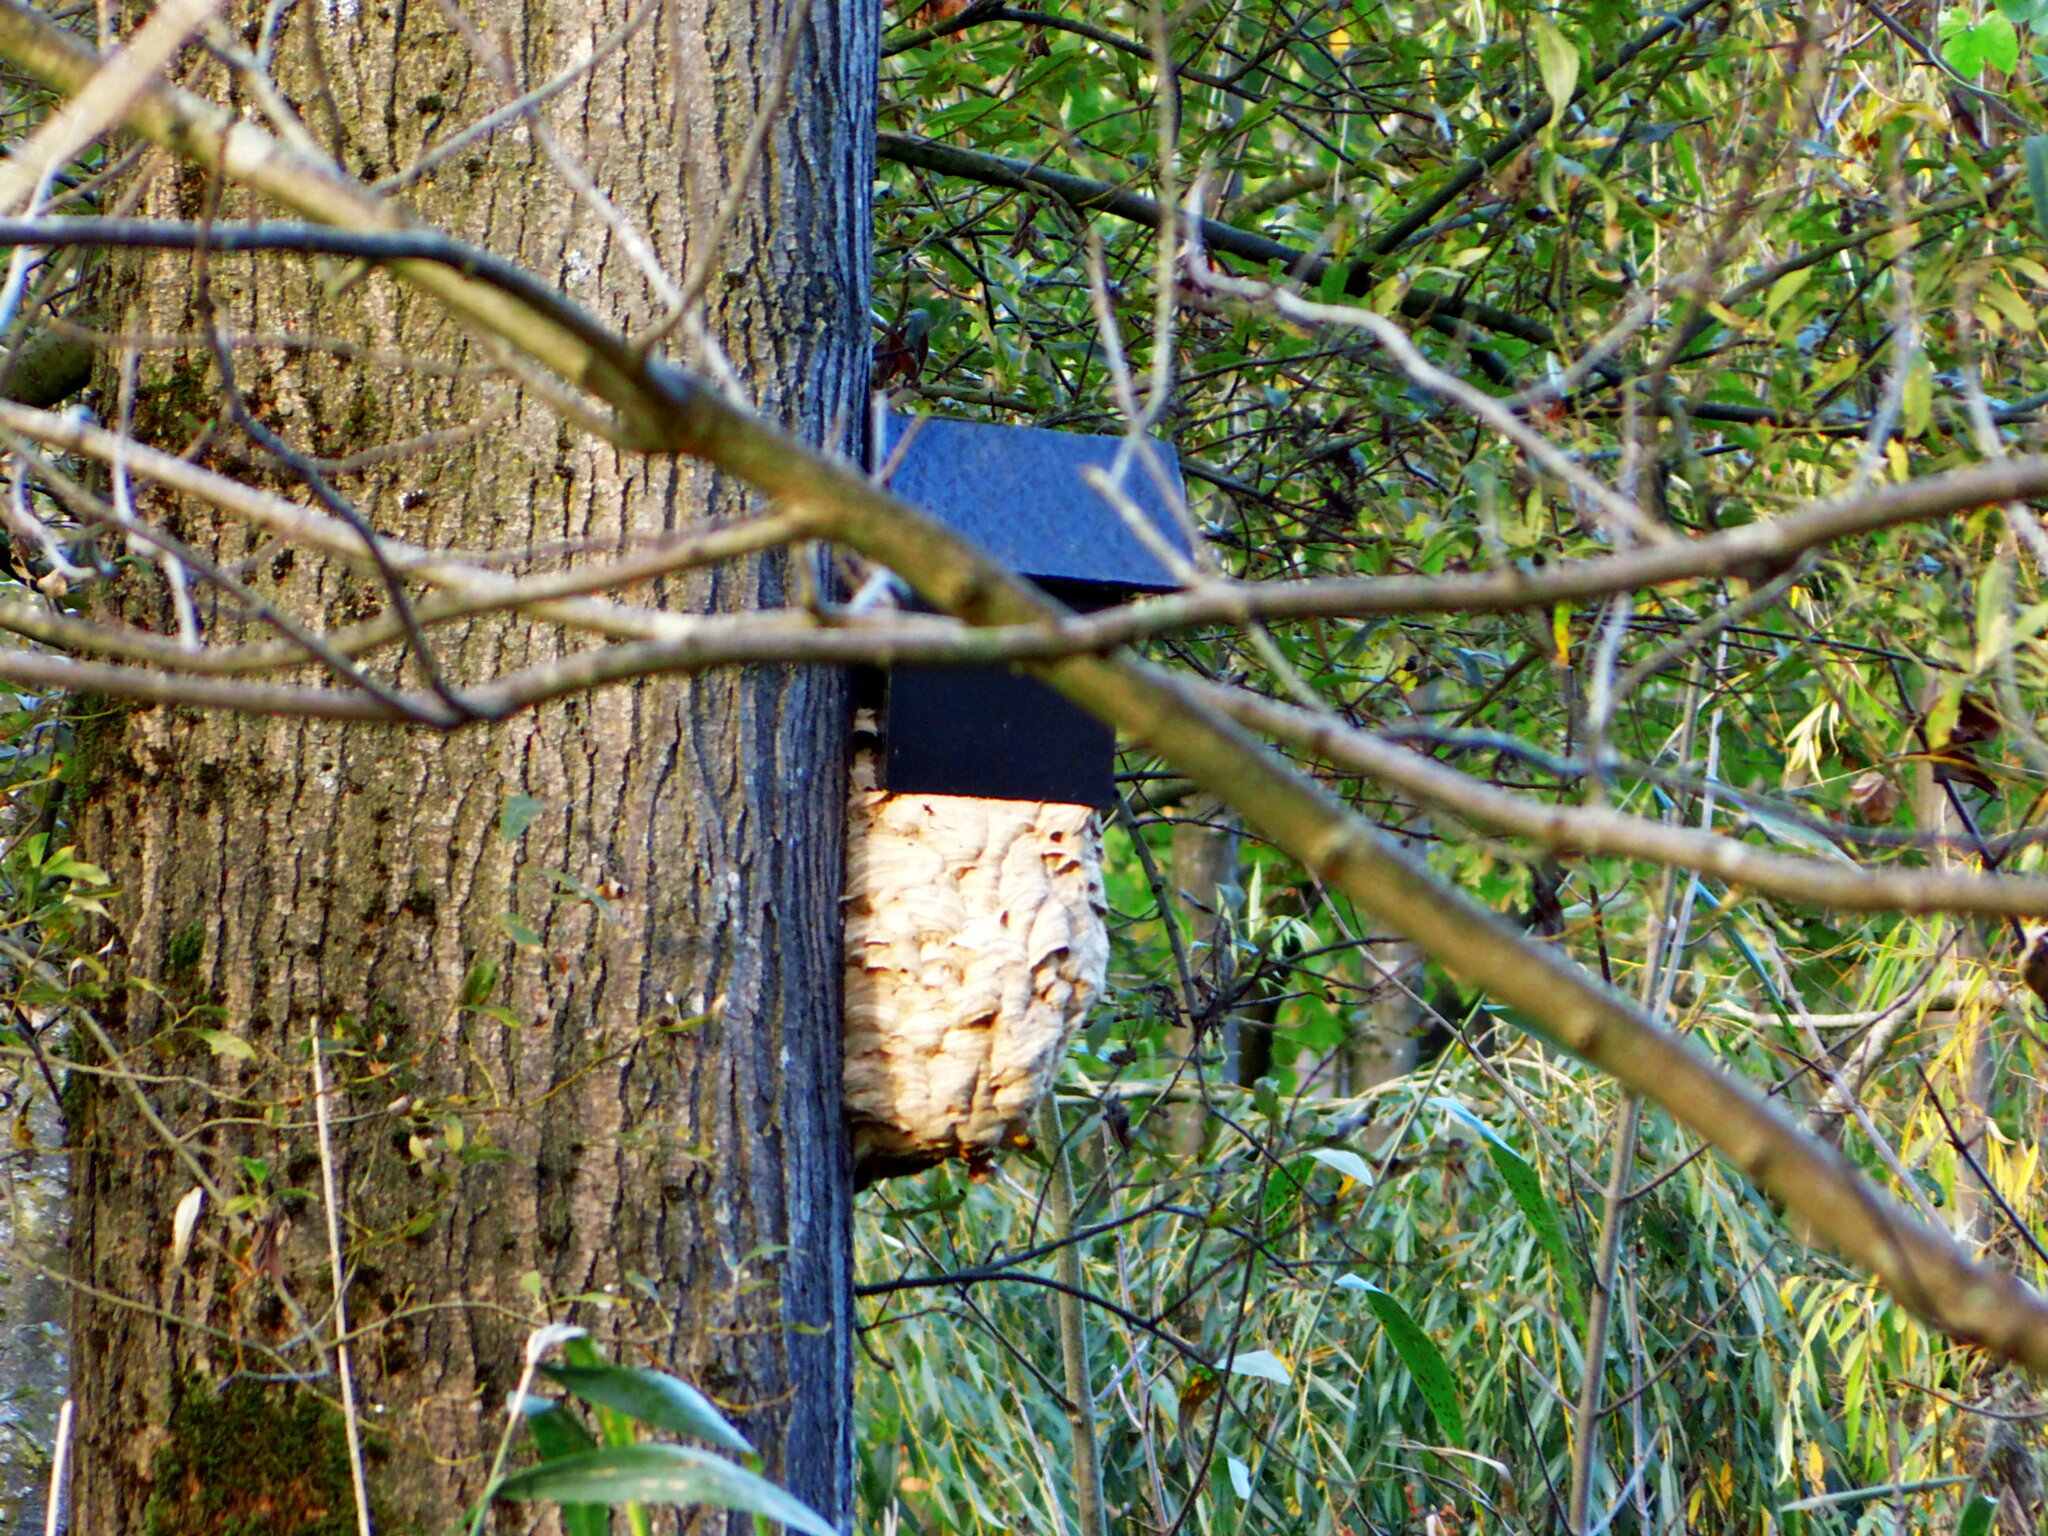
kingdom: Animalia
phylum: Arthropoda
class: Insecta
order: Hymenoptera
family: Vespidae
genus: Vespa
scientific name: Vespa crabro
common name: Hornet
